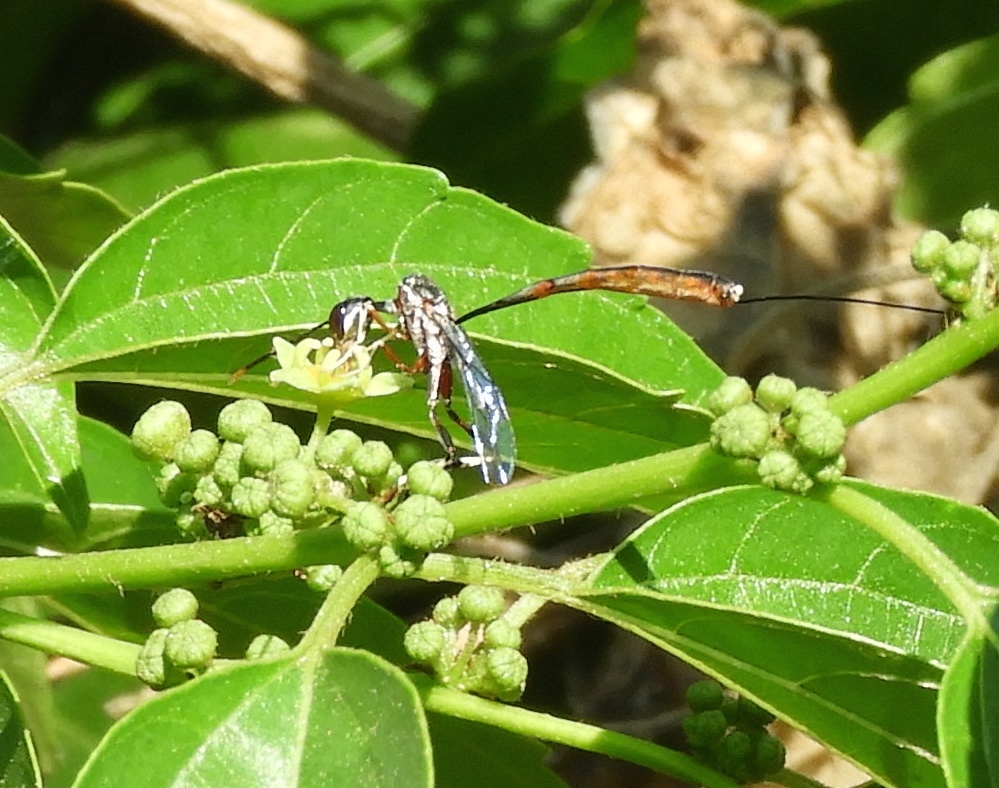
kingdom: Animalia
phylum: Arthropoda
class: Insecta
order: Hymenoptera
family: Gasteruptiidae
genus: Gasteruption
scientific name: Gasteruption
